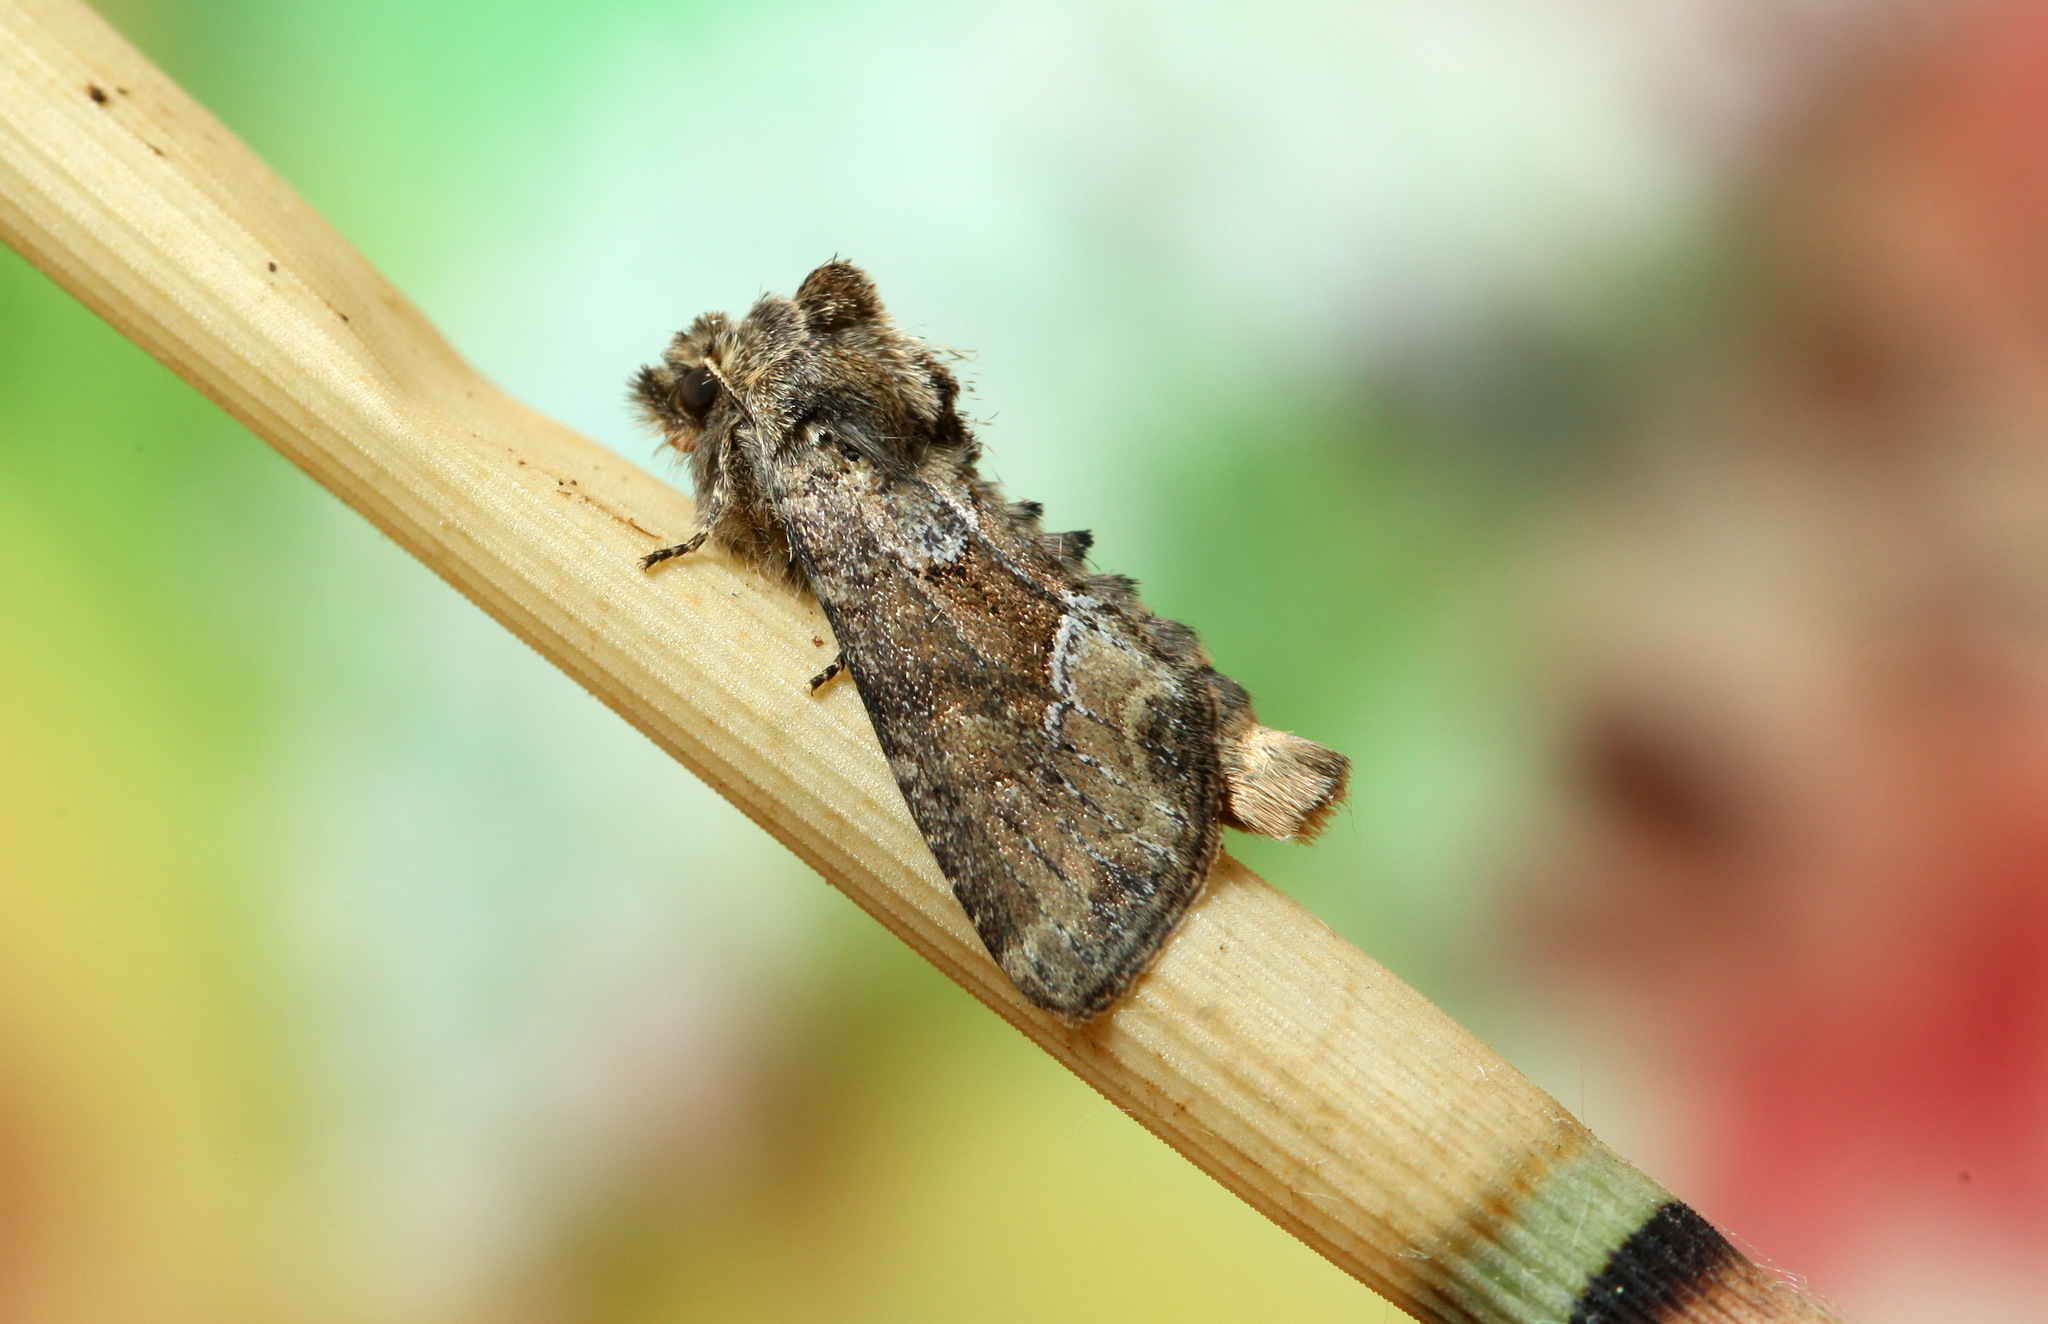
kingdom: Animalia
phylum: Arthropoda
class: Insecta
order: Lepidoptera
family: Noctuidae
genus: Xylomoia
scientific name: Xylomoia retinax
